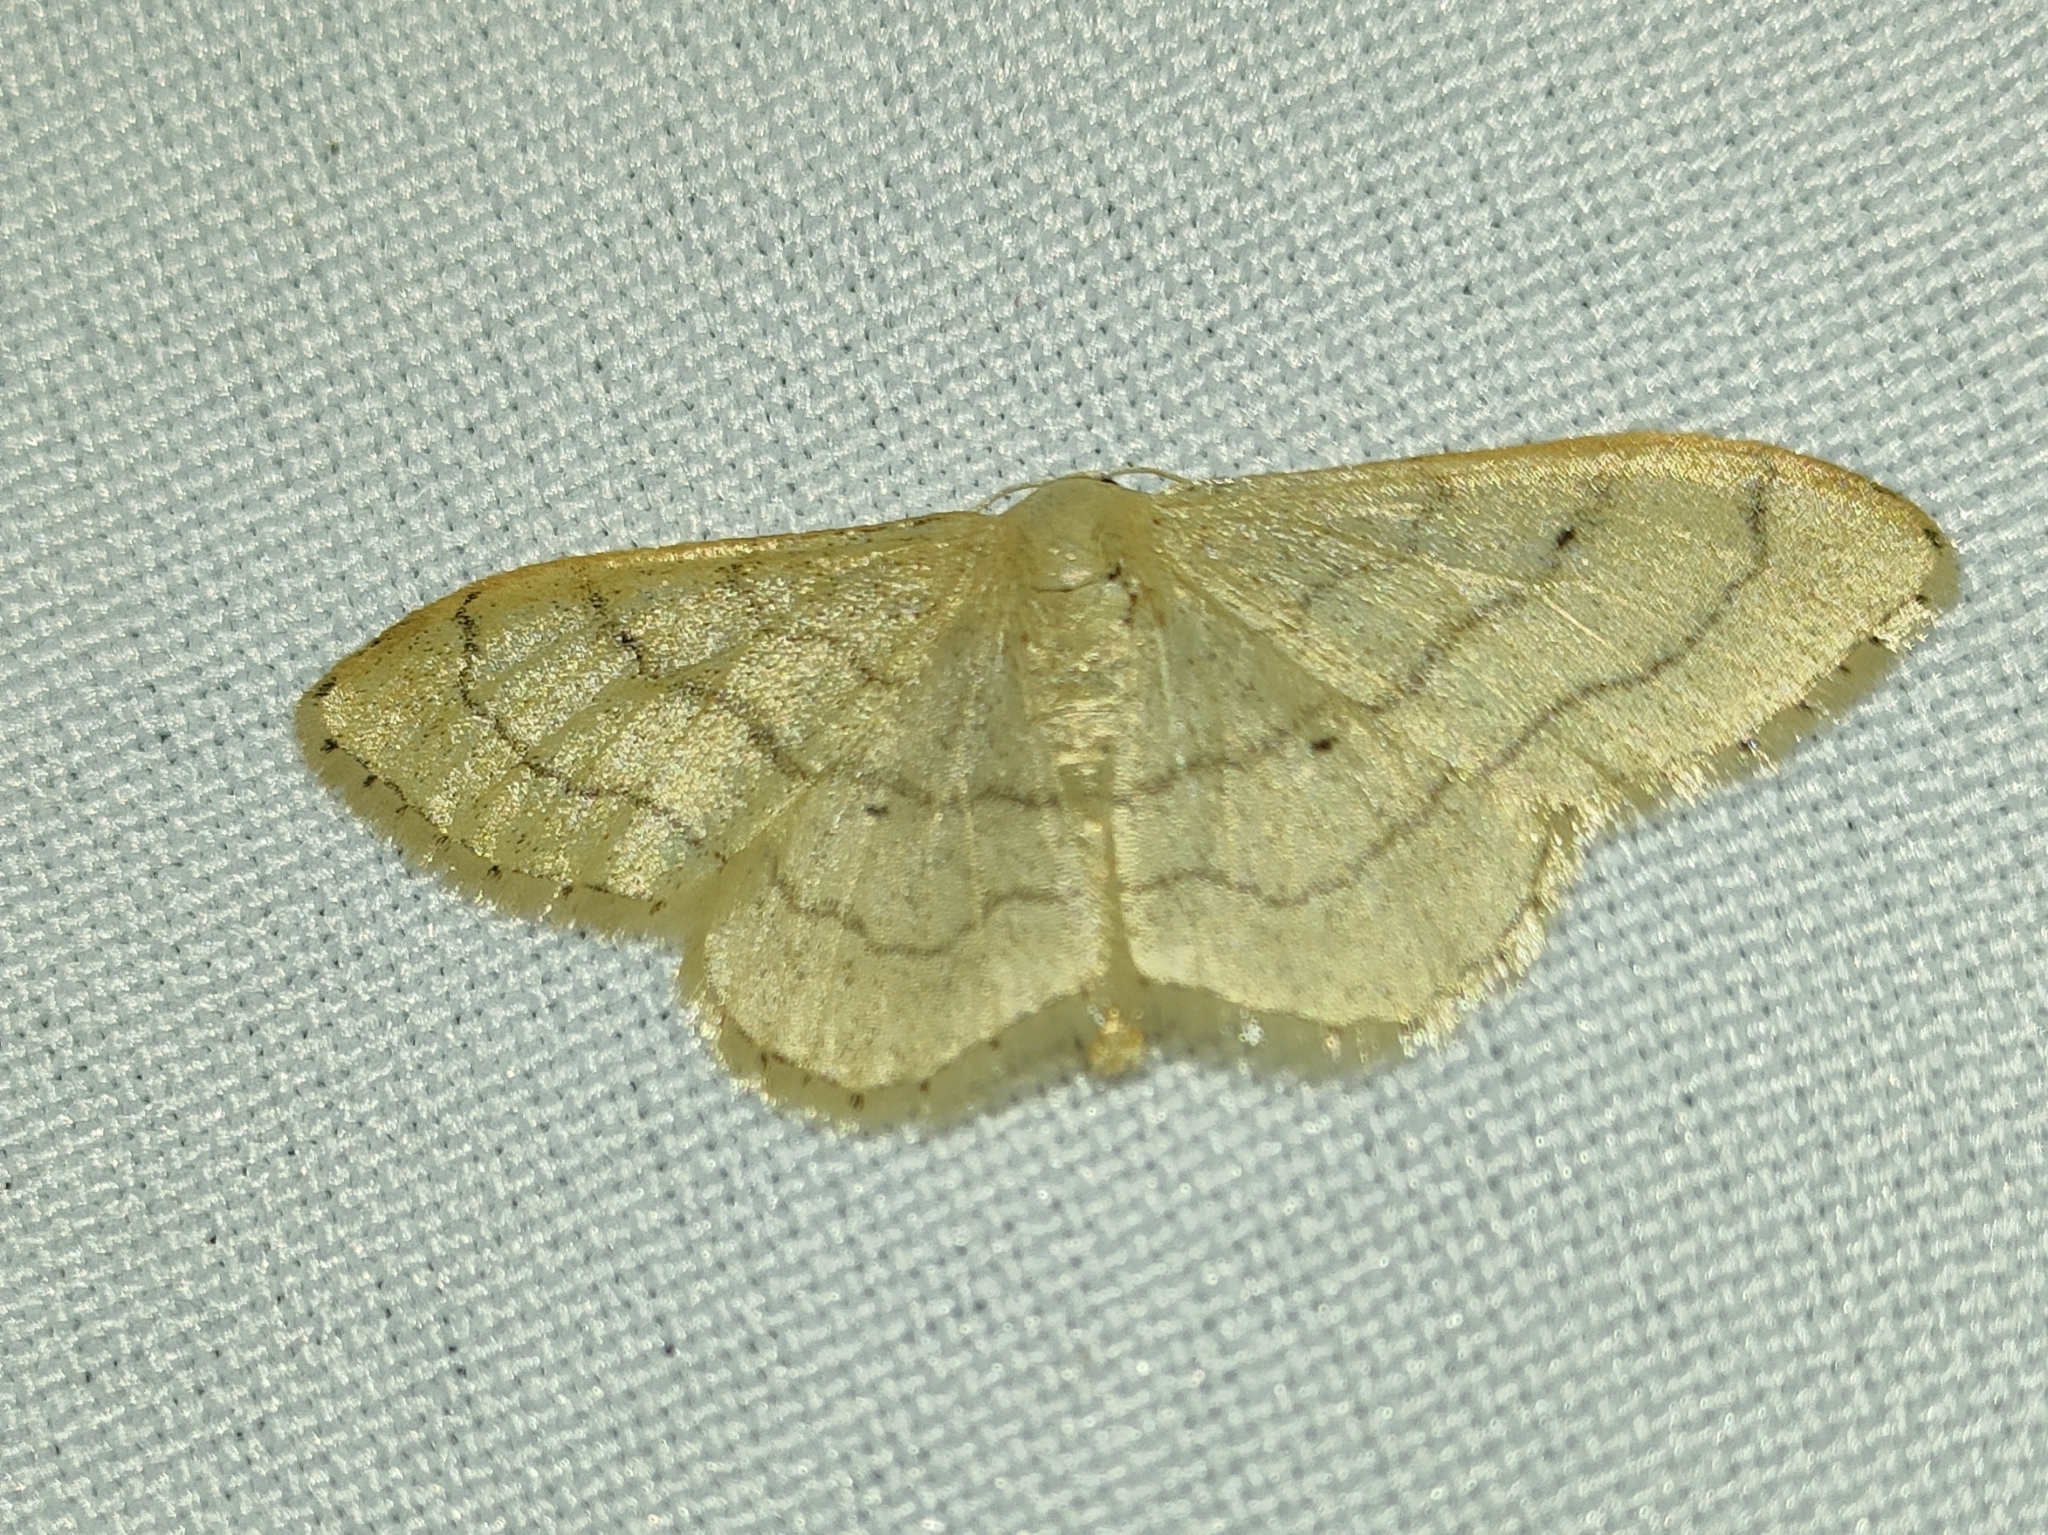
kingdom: Animalia
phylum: Arthropoda
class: Insecta
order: Lepidoptera
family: Geometridae
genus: Idaea
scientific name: Idaea aversata
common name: Riband wave
